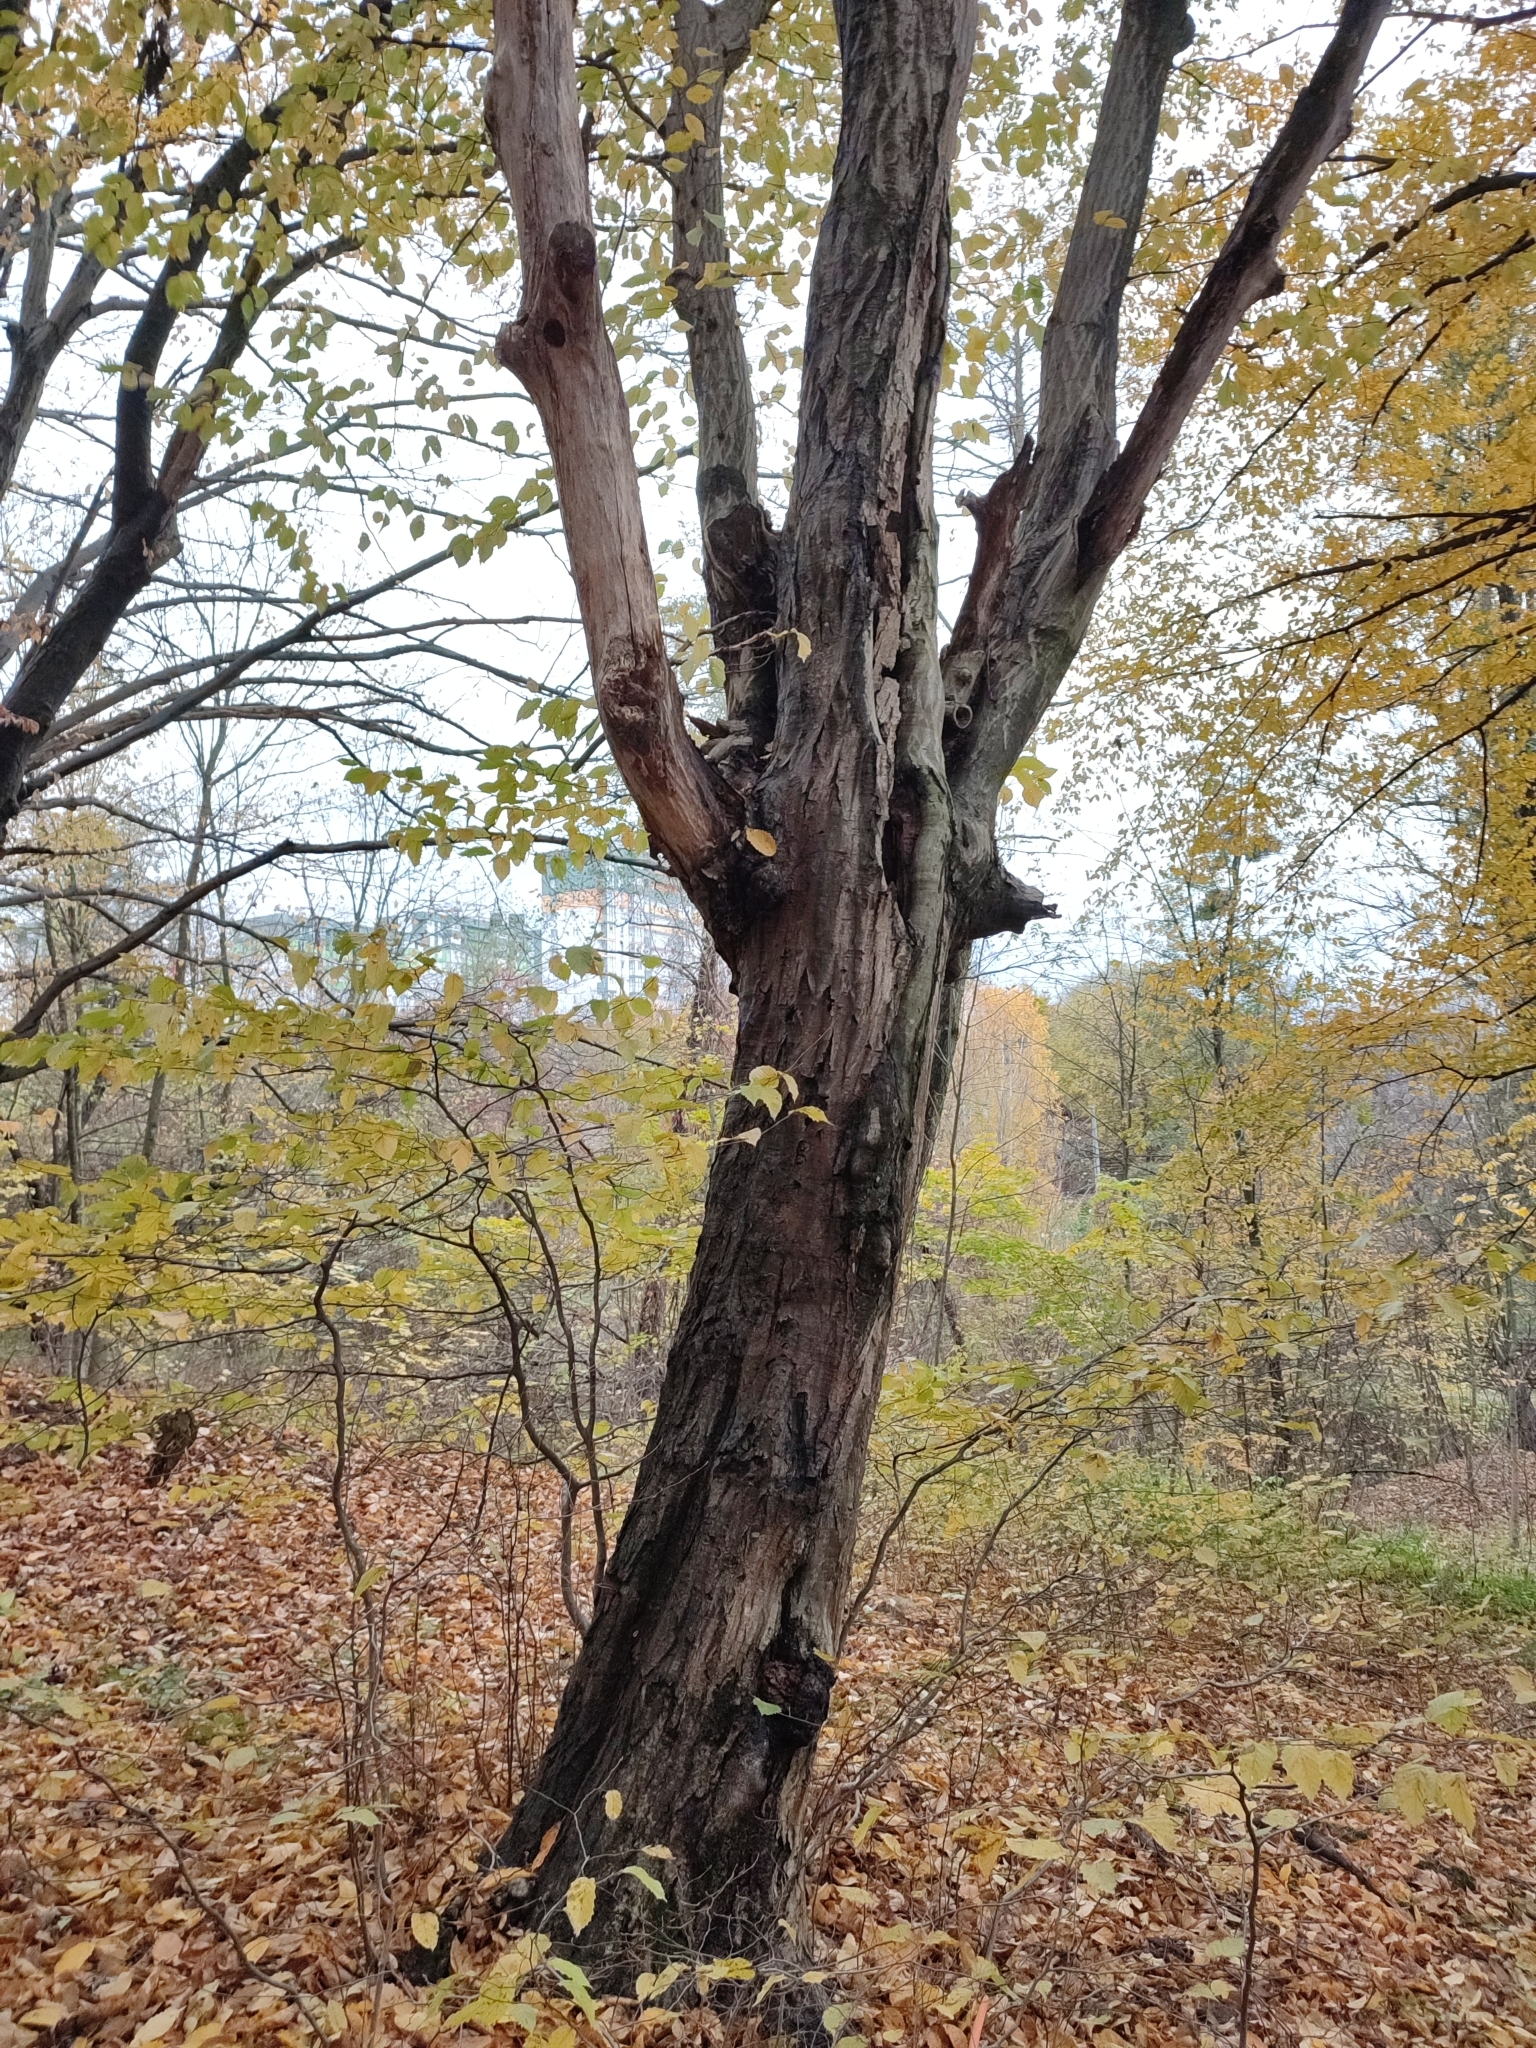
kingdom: Plantae
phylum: Tracheophyta
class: Magnoliopsida
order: Fagales
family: Betulaceae
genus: Carpinus
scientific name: Carpinus betulus
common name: Hornbeam
